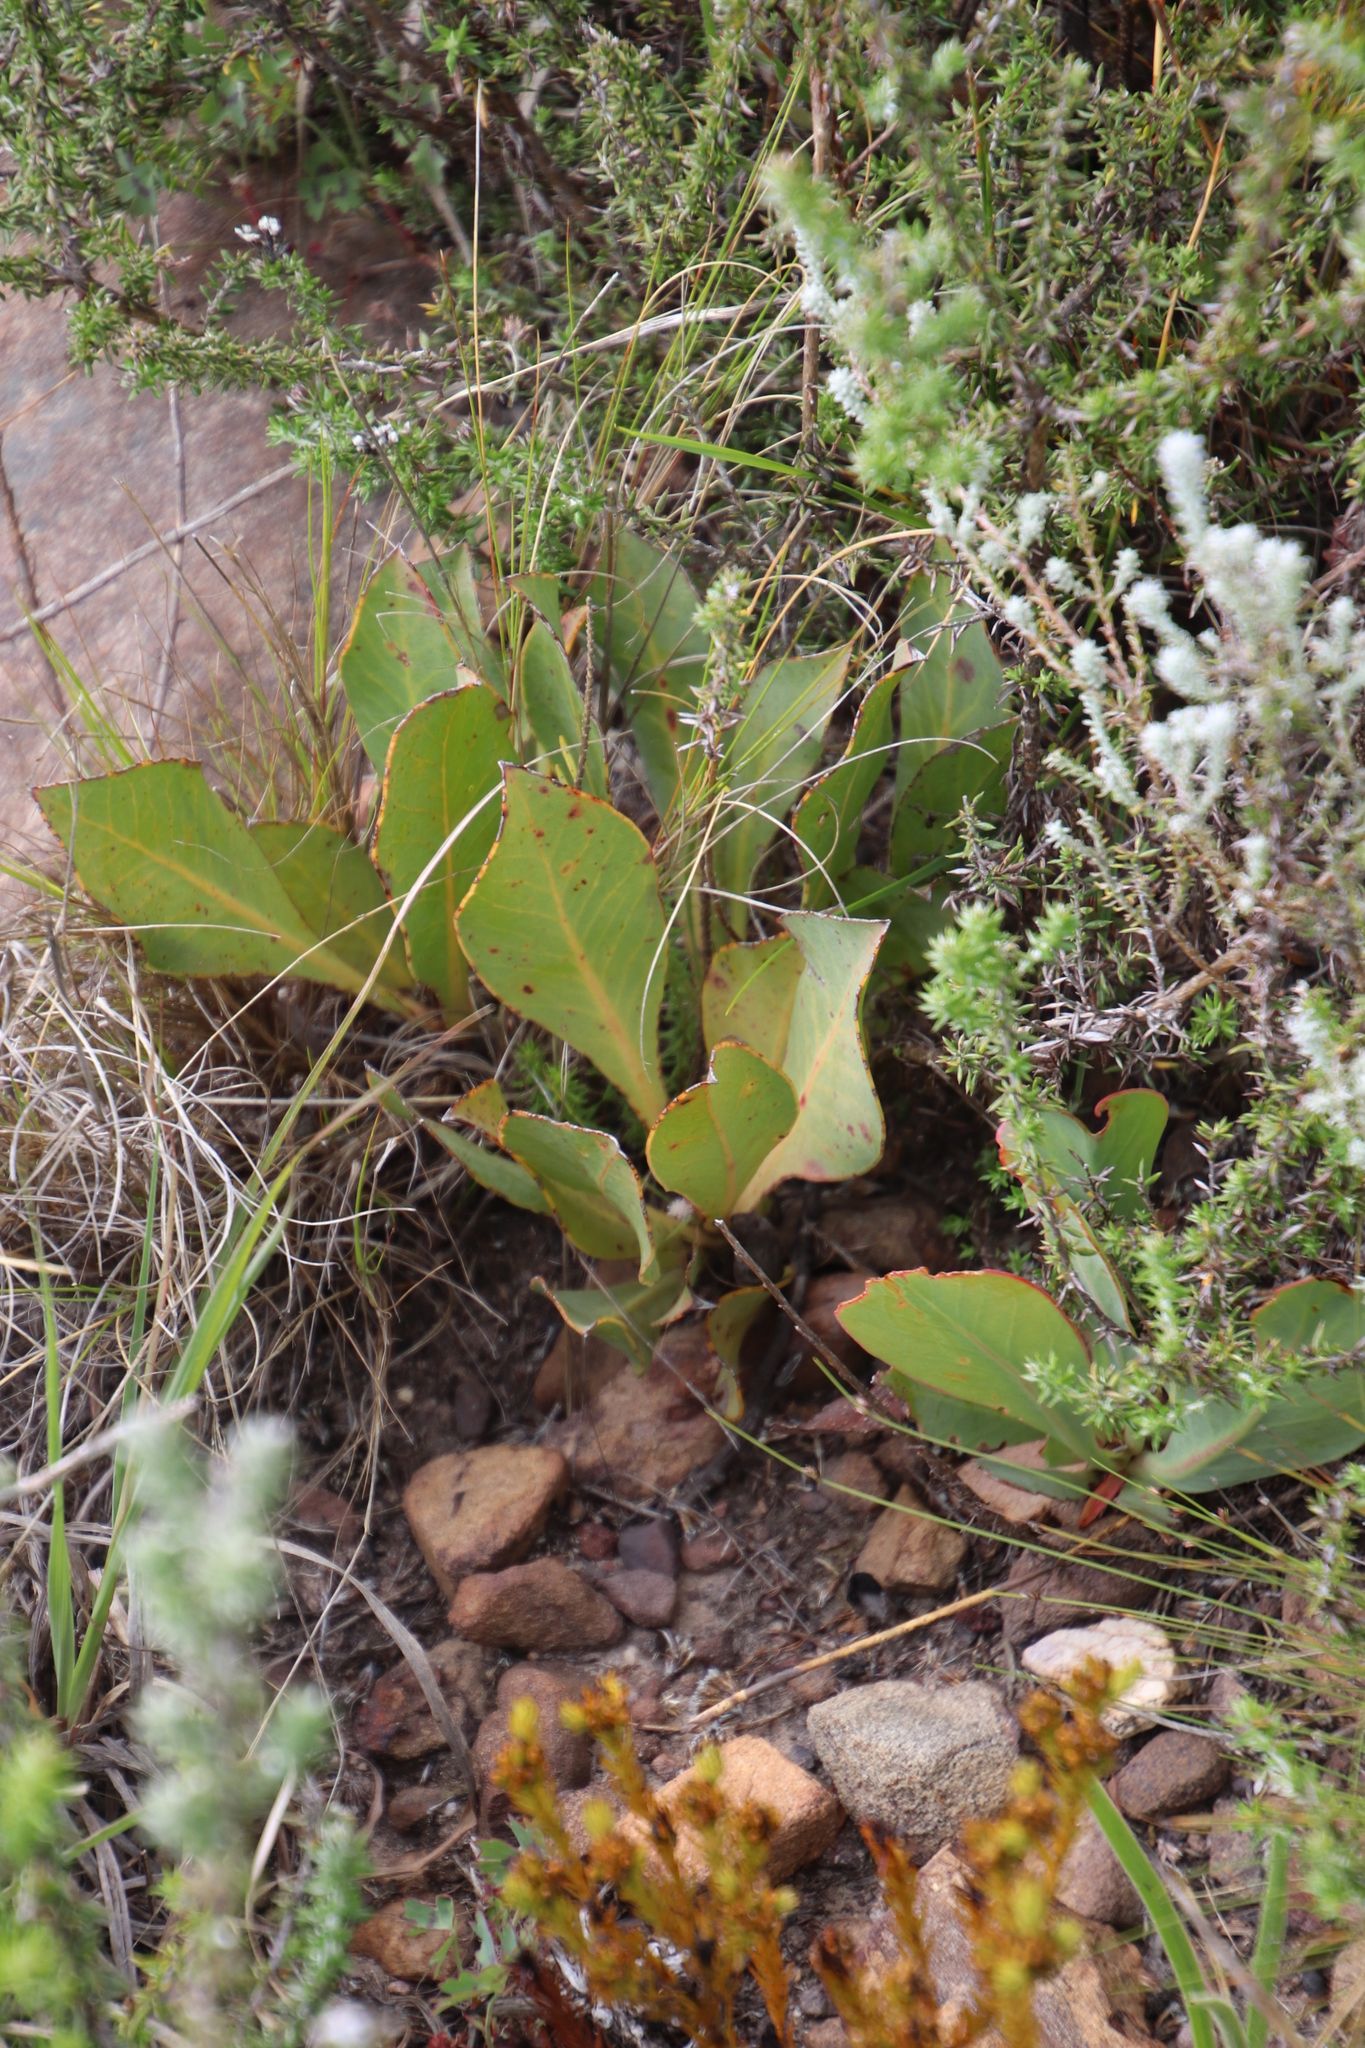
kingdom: Plantae
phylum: Tracheophyta
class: Magnoliopsida
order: Proteales
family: Proteaceae
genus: Protea
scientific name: Protea acaulos
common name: Common ground sugarbush
